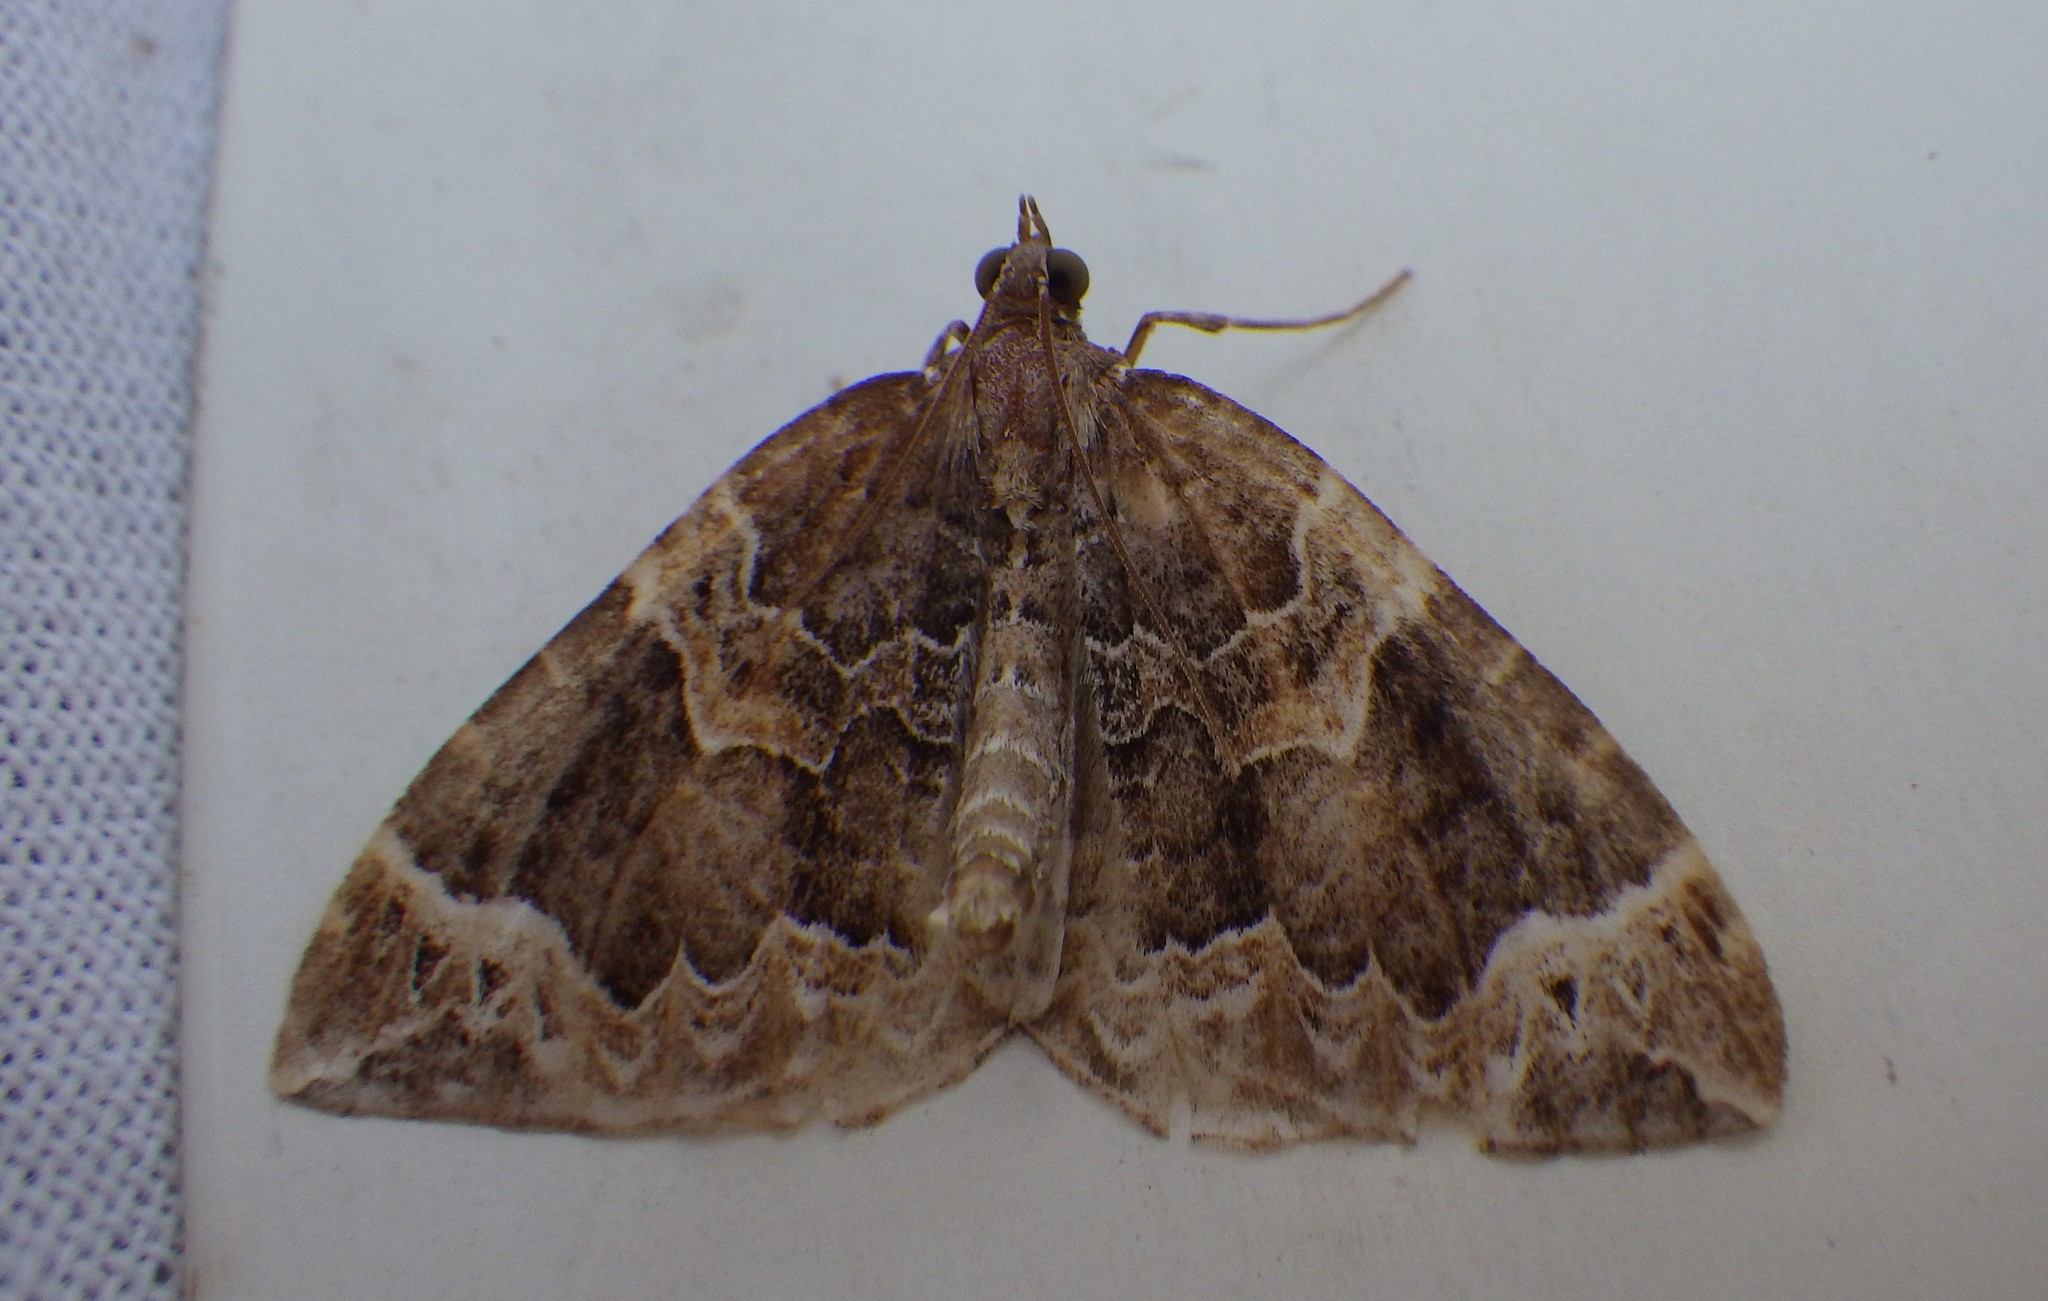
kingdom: Animalia
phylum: Arthropoda
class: Insecta
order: Lepidoptera
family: Geometridae
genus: Eulithis
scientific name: Eulithis prunata
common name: Phoenix
